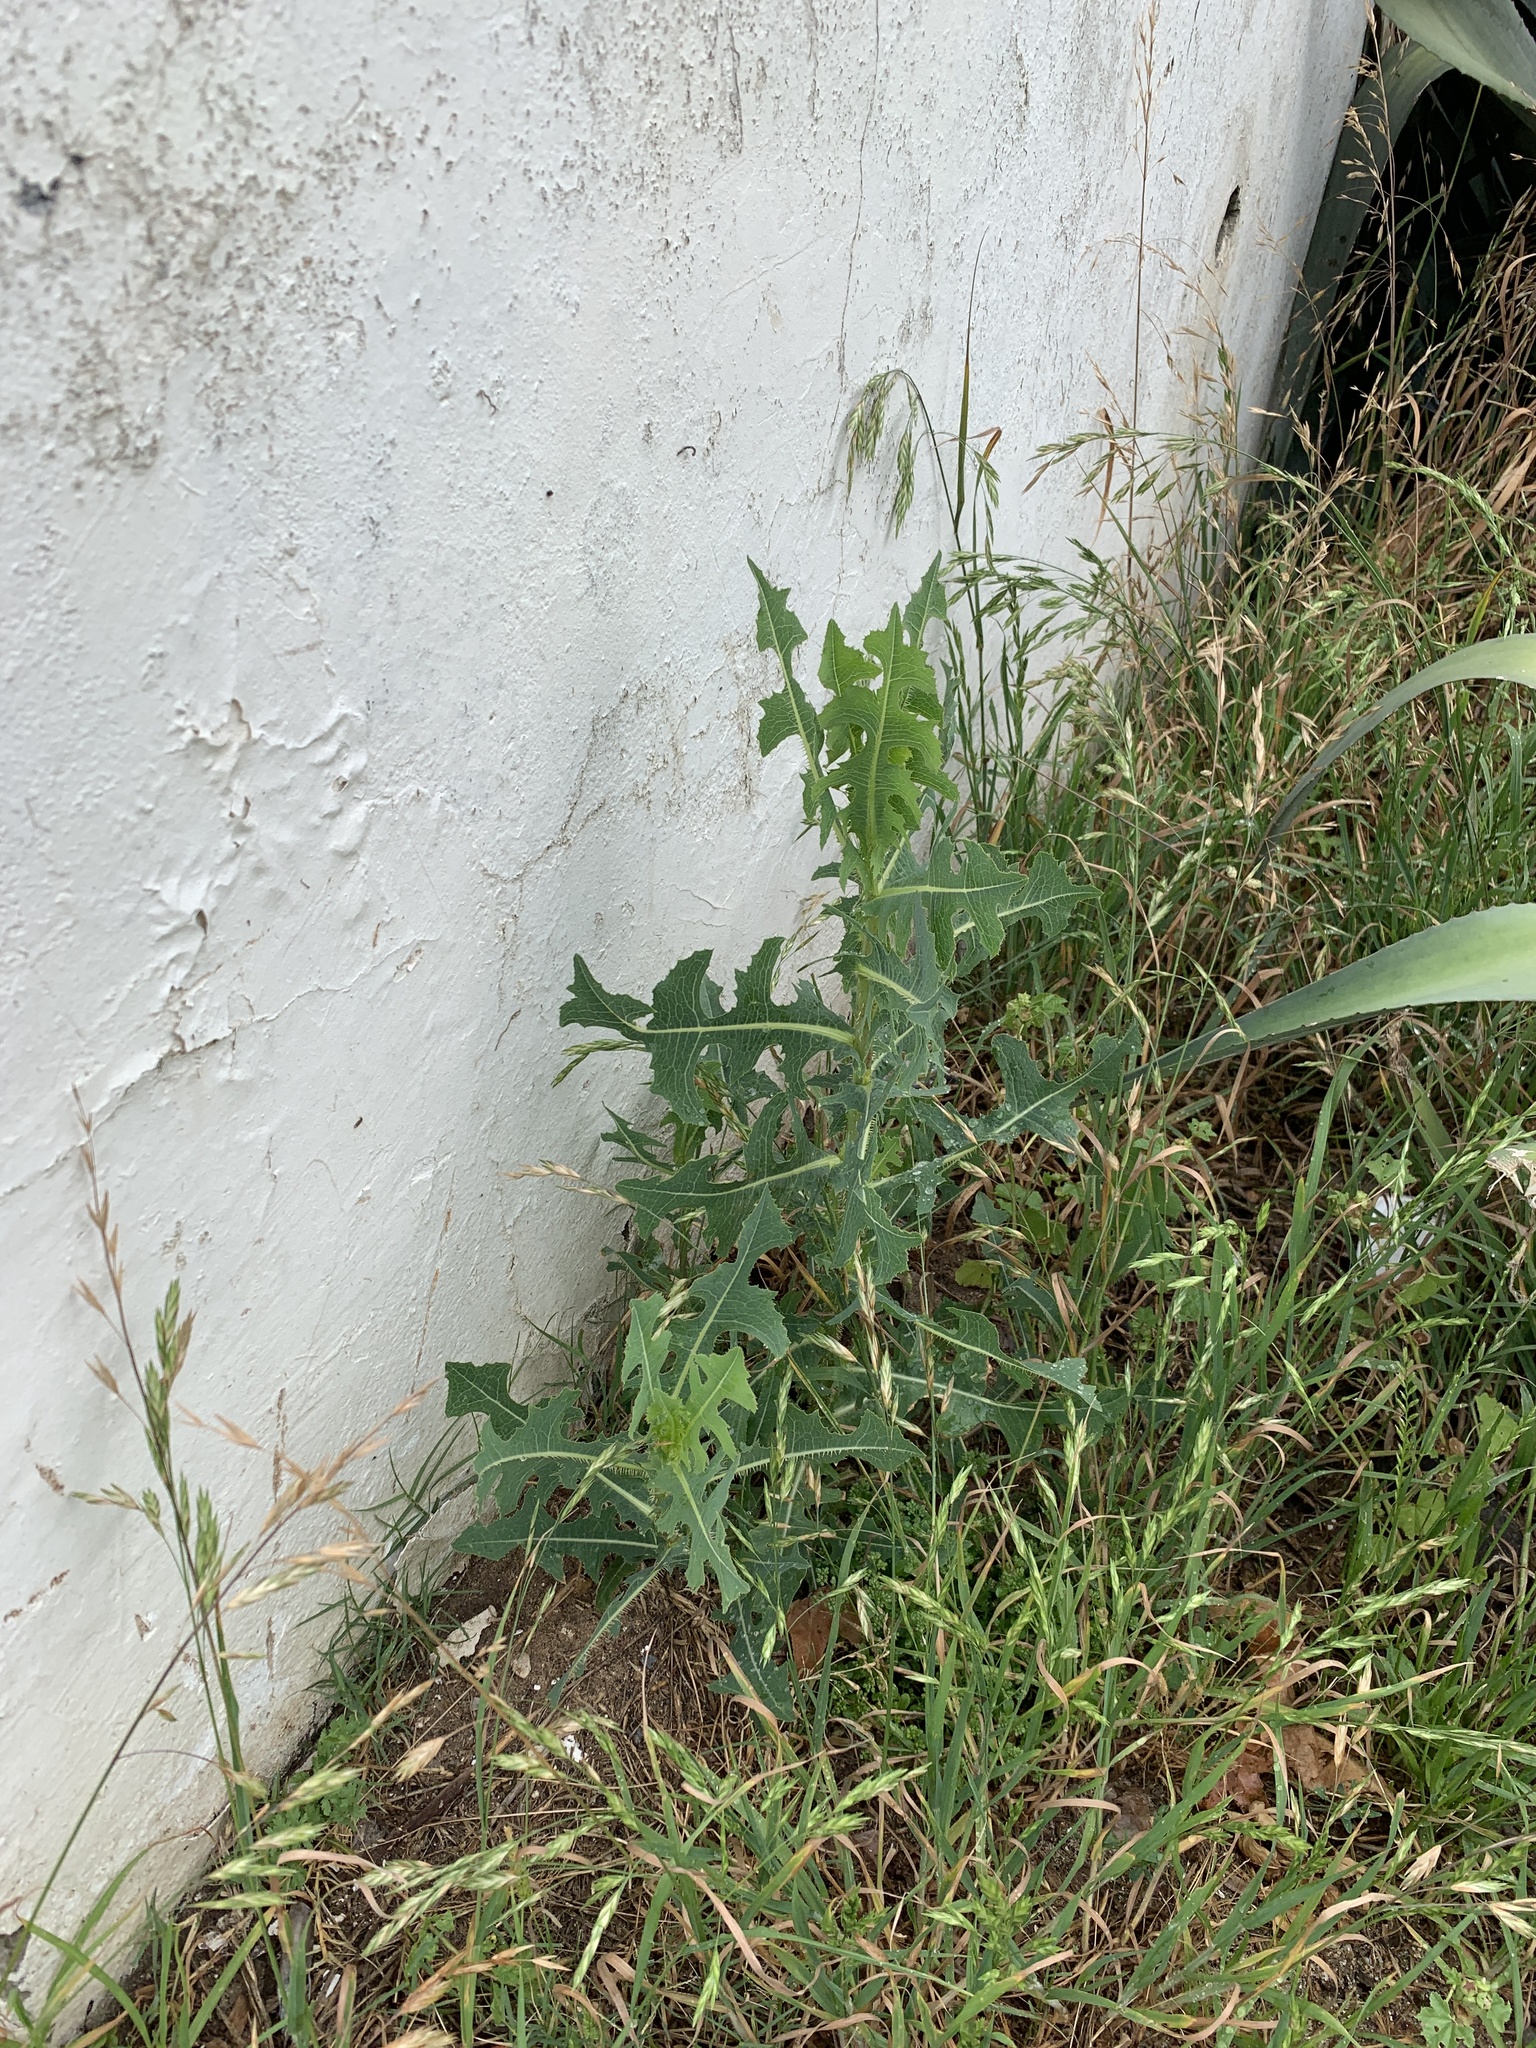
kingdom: Plantae
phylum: Tracheophyta
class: Magnoliopsida
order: Asterales
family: Asteraceae
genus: Lactuca
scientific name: Lactuca serriola
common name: Prickly lettuce
